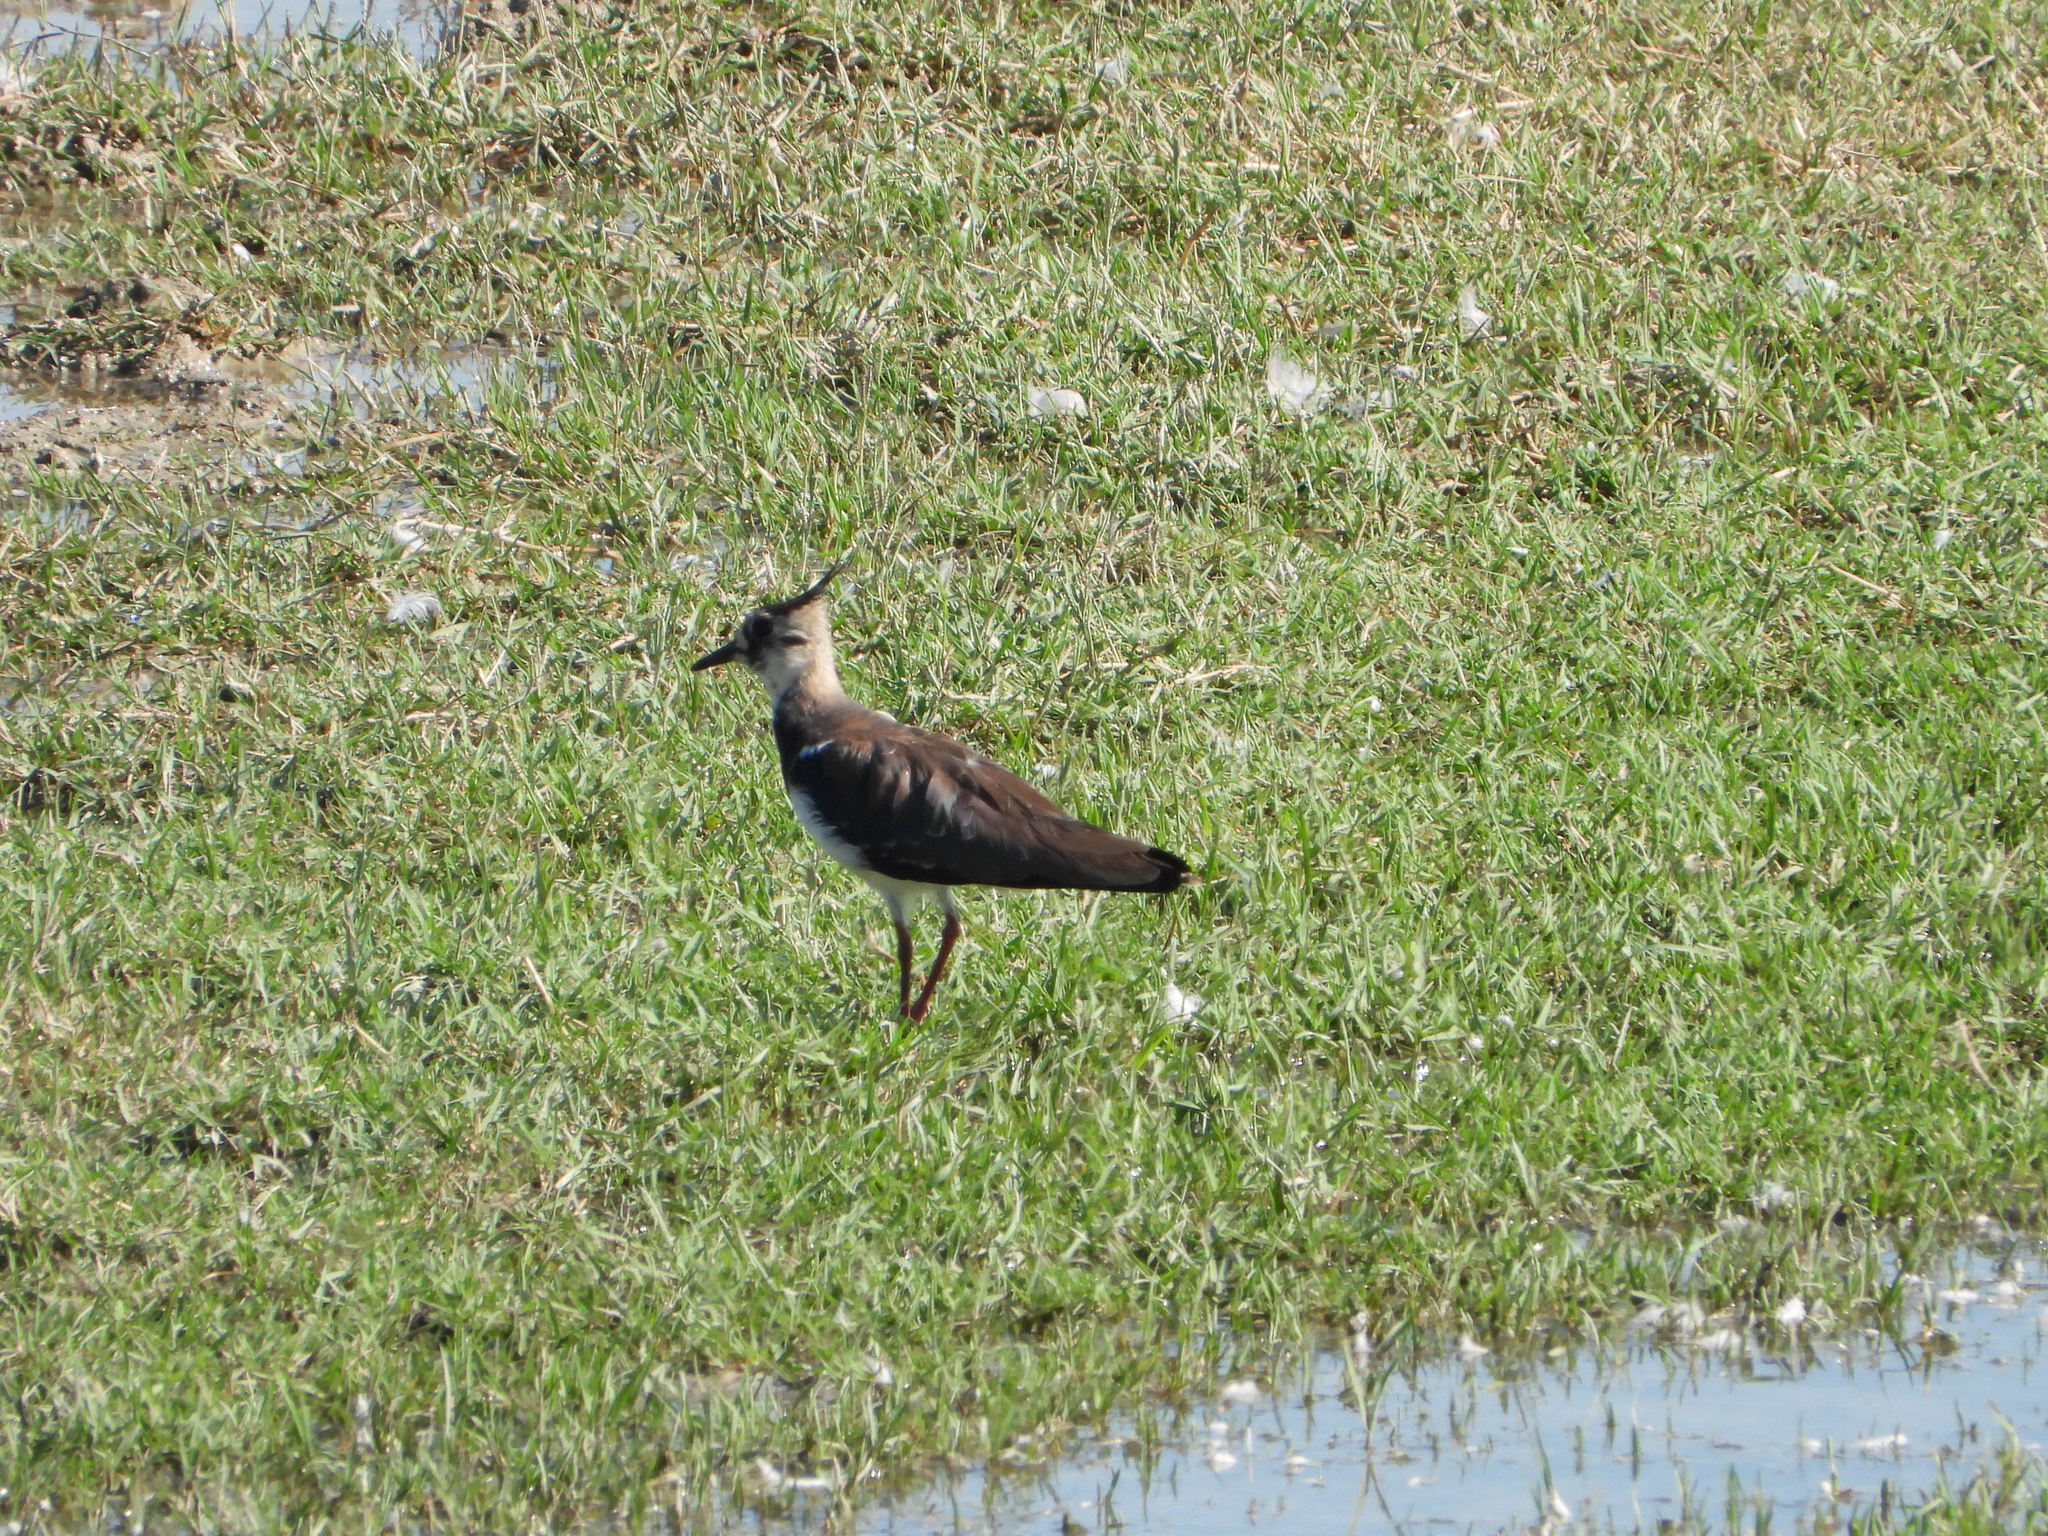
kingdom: Animalia
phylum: Chordata
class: Aves
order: Charadriiformes
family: Charadriidae
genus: Vanellus
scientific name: Vanellus vanellus
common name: Northern lapwing
